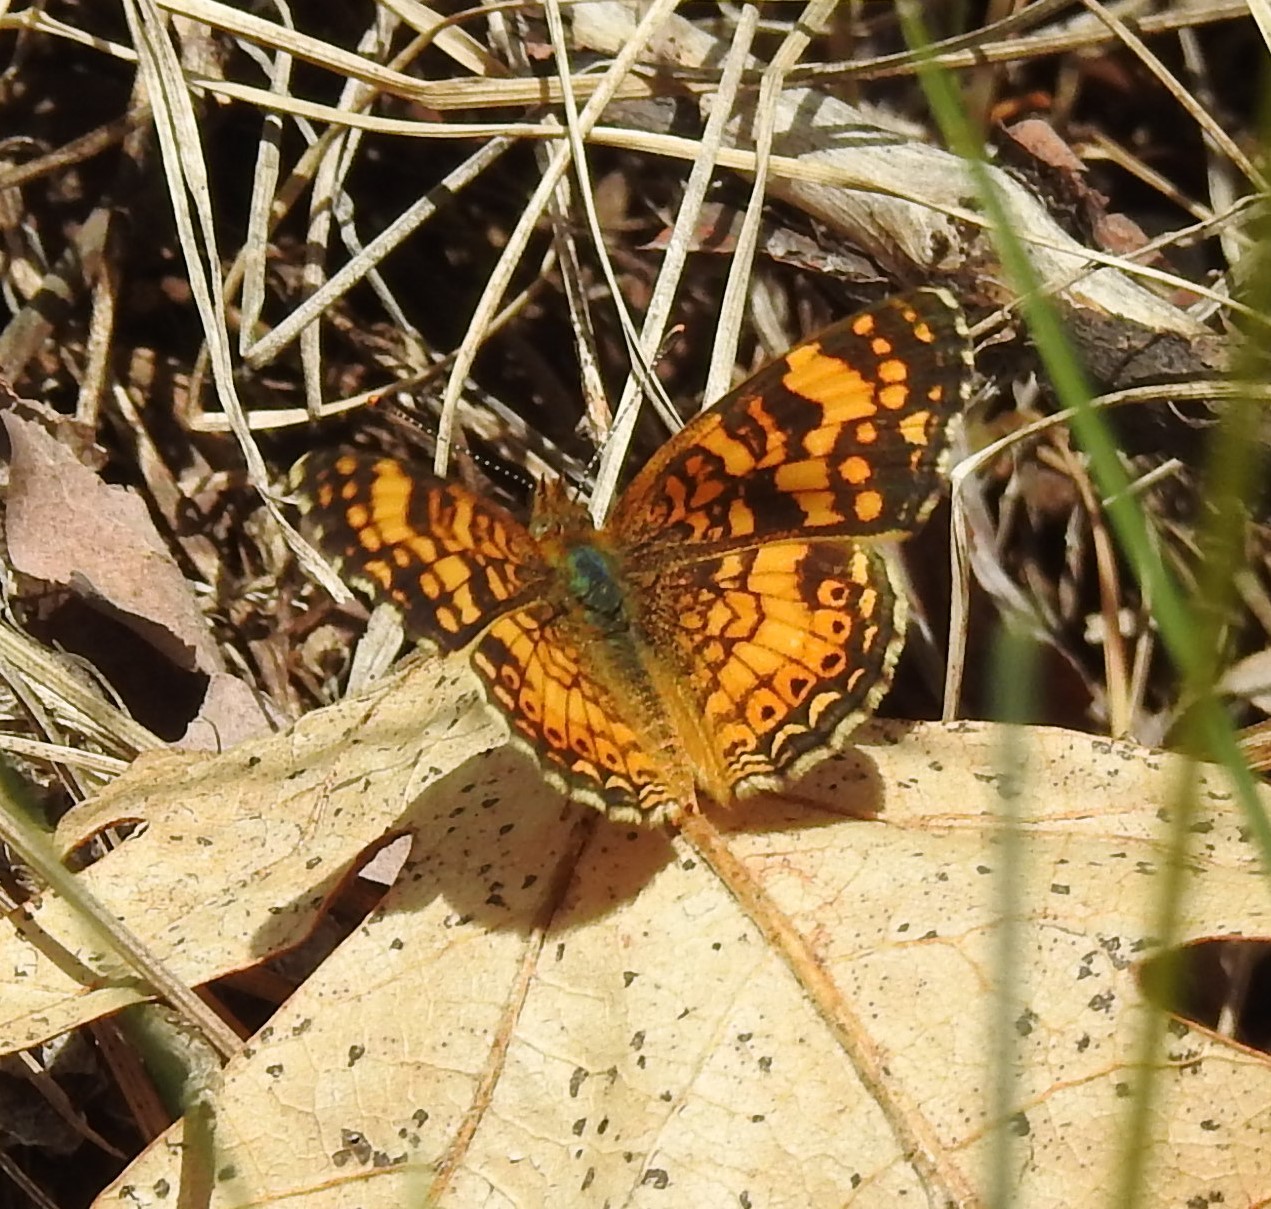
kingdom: Animalia
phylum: Arthropoda
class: Insecta
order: Lepidoptera
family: Nymphalidae
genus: Eresia
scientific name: Eresia aveyrona
